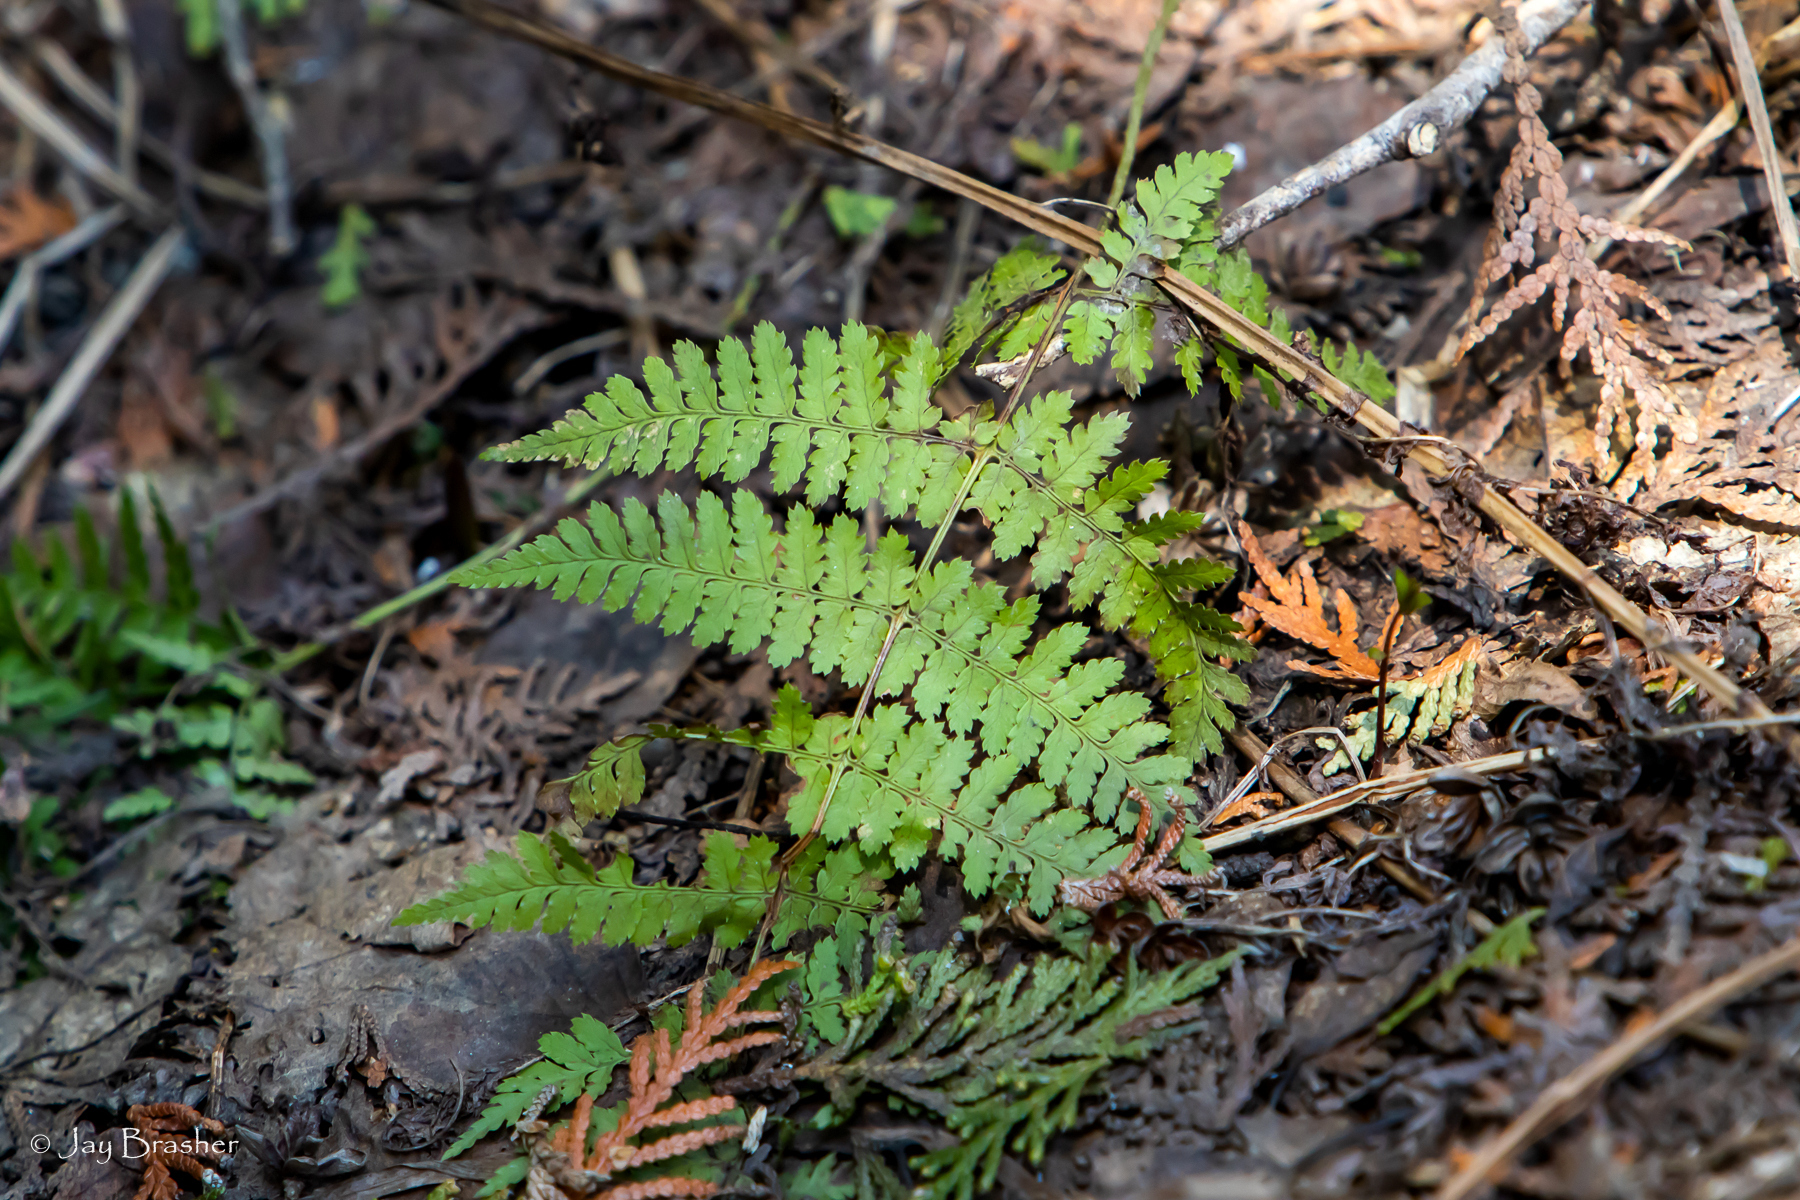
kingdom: Plantae
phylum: Tracheophyta
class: Polypodiopsida
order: Polypodiales
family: Dryopteridaceae
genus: Dryopteris
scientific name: Dryopteris intermedia
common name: Evergreen wood fern
